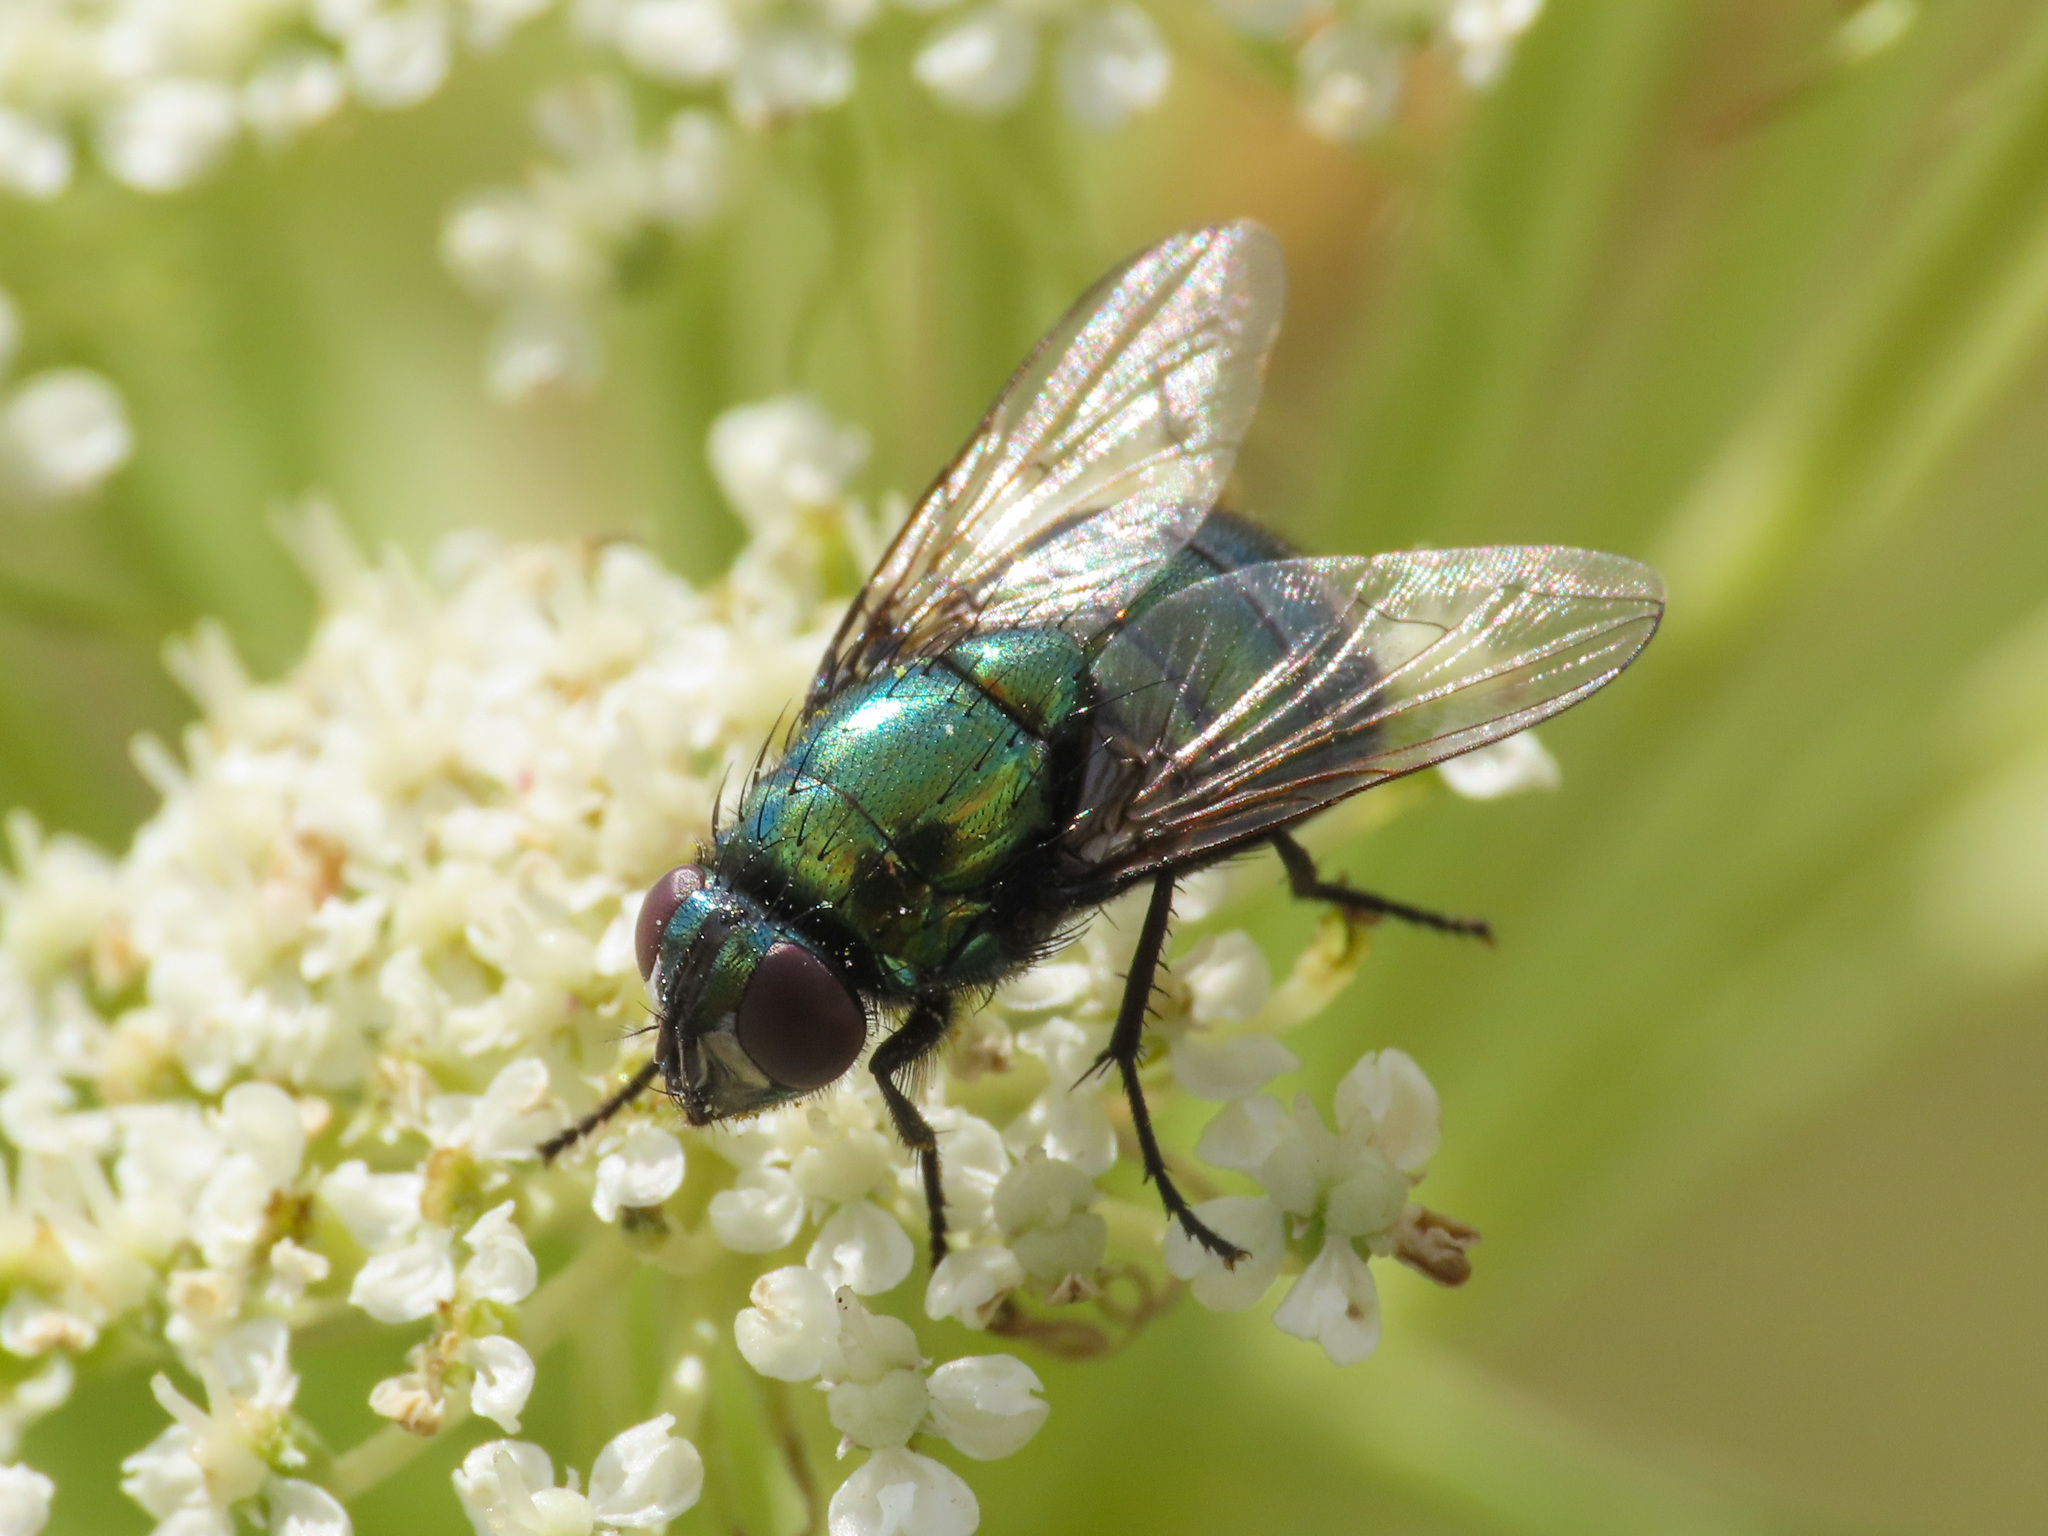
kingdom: Animalia
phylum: Arthropoda
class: Insecta
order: Diptera
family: Muscidae
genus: Neomyia
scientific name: Neomyia cornicina
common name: House fly
